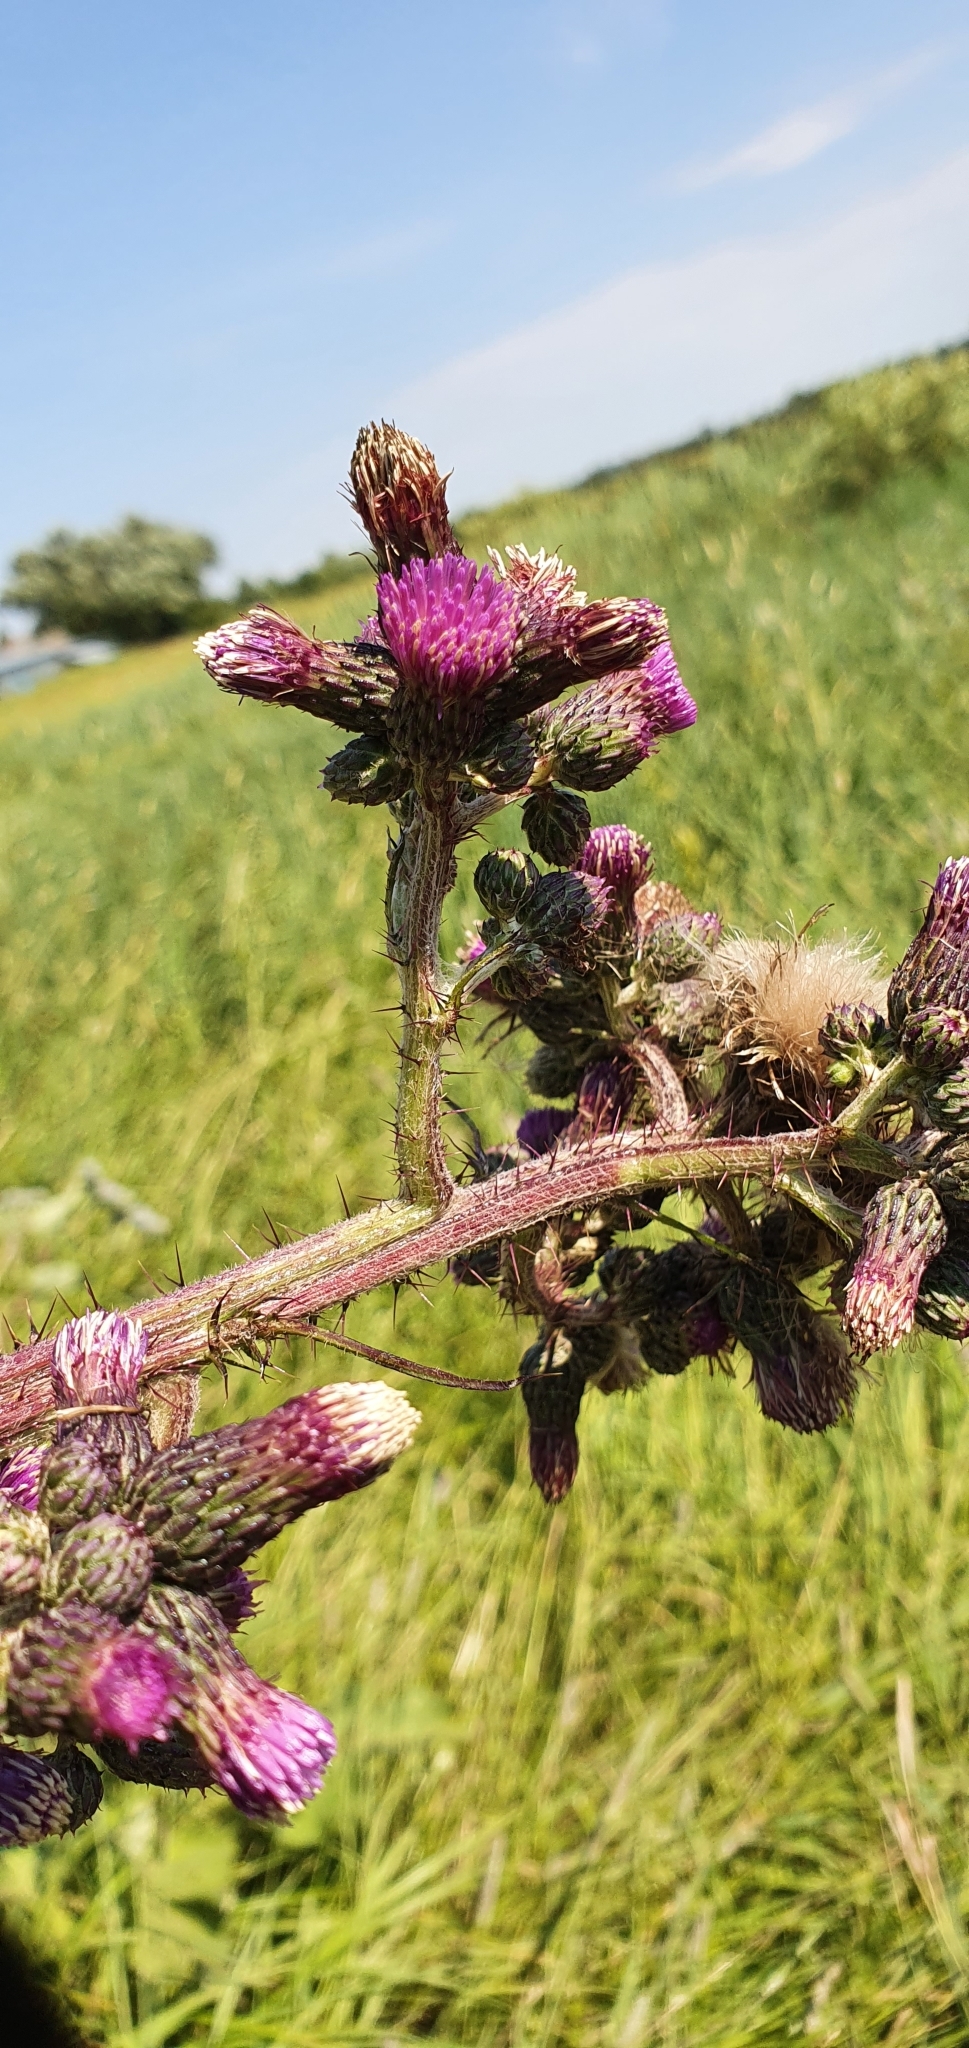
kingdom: Plantae
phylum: Tracheophyta
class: Magnoliopsida
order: Asterales
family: Asteraceae
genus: Cirsium
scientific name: Cirsium palustre
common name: Marsh thistle
